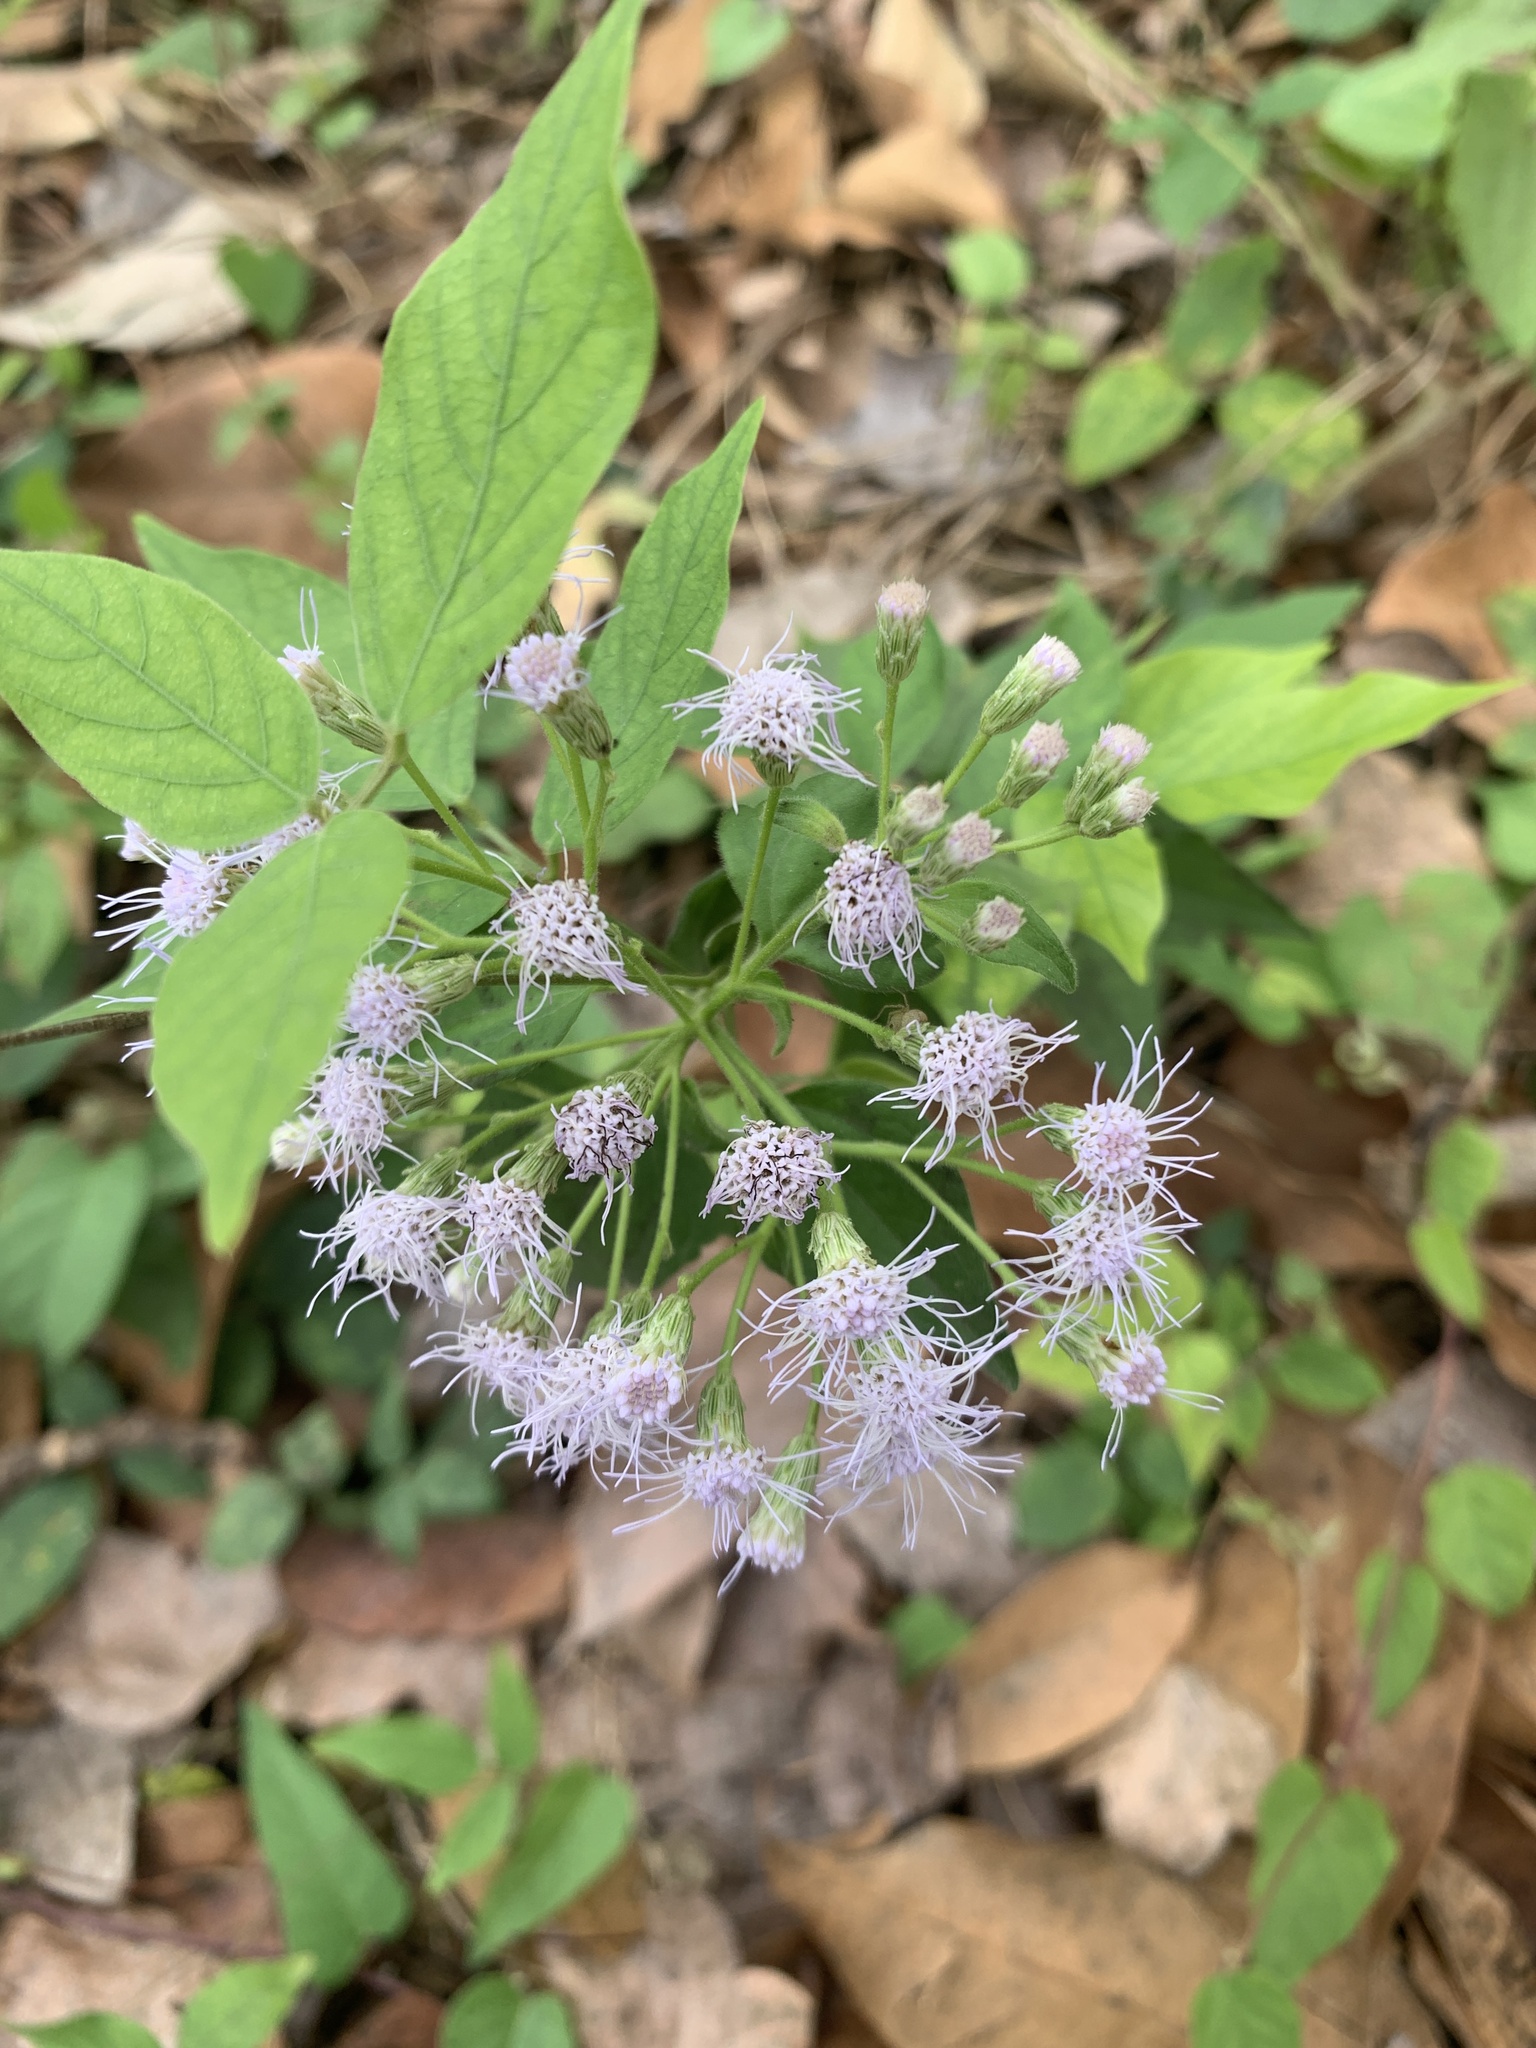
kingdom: Plantae
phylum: Tracheophyta
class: Magnoliopsida
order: Asterales
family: Asteraceae
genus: Chromolaena
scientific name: Chromolaena odorata
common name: Siamweed
